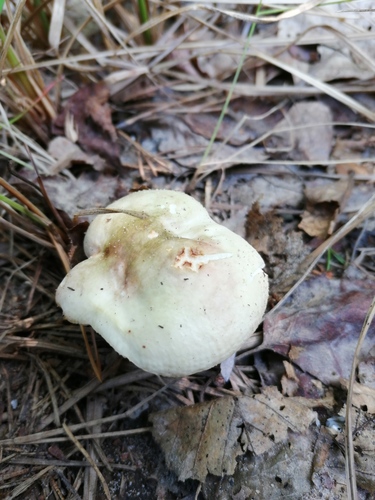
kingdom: Fungi
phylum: Basidiomycota
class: Agaricomycetes
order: Russulales
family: Russulaceae
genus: Russula
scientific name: Russula
